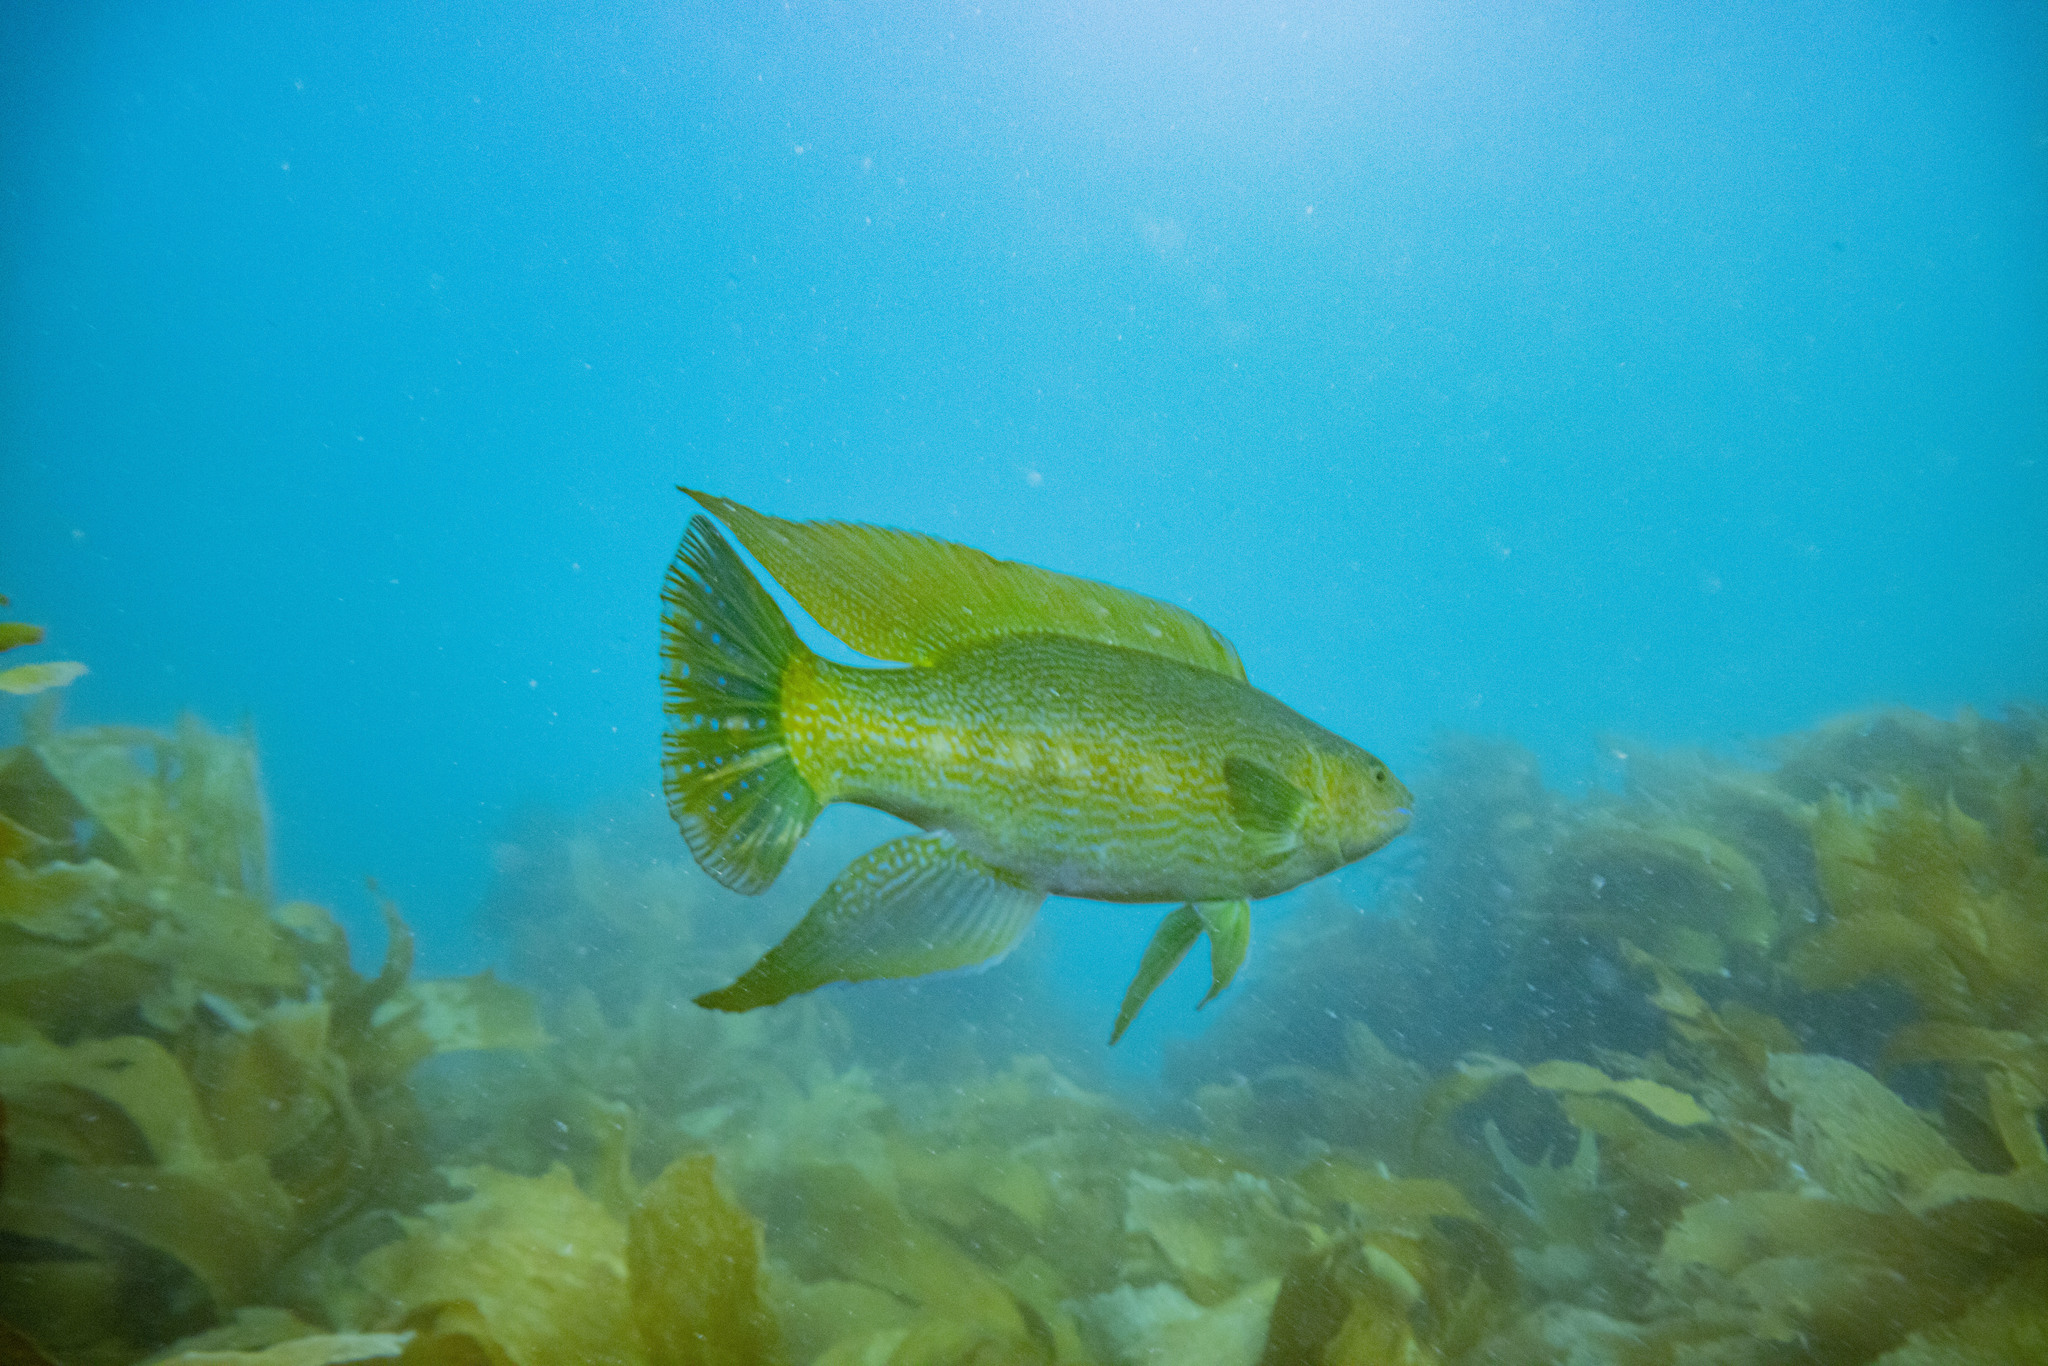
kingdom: Animalia
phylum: Chordata
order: Perciformes
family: Odacidae
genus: Odax
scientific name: Odax pullus
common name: Butterfish
